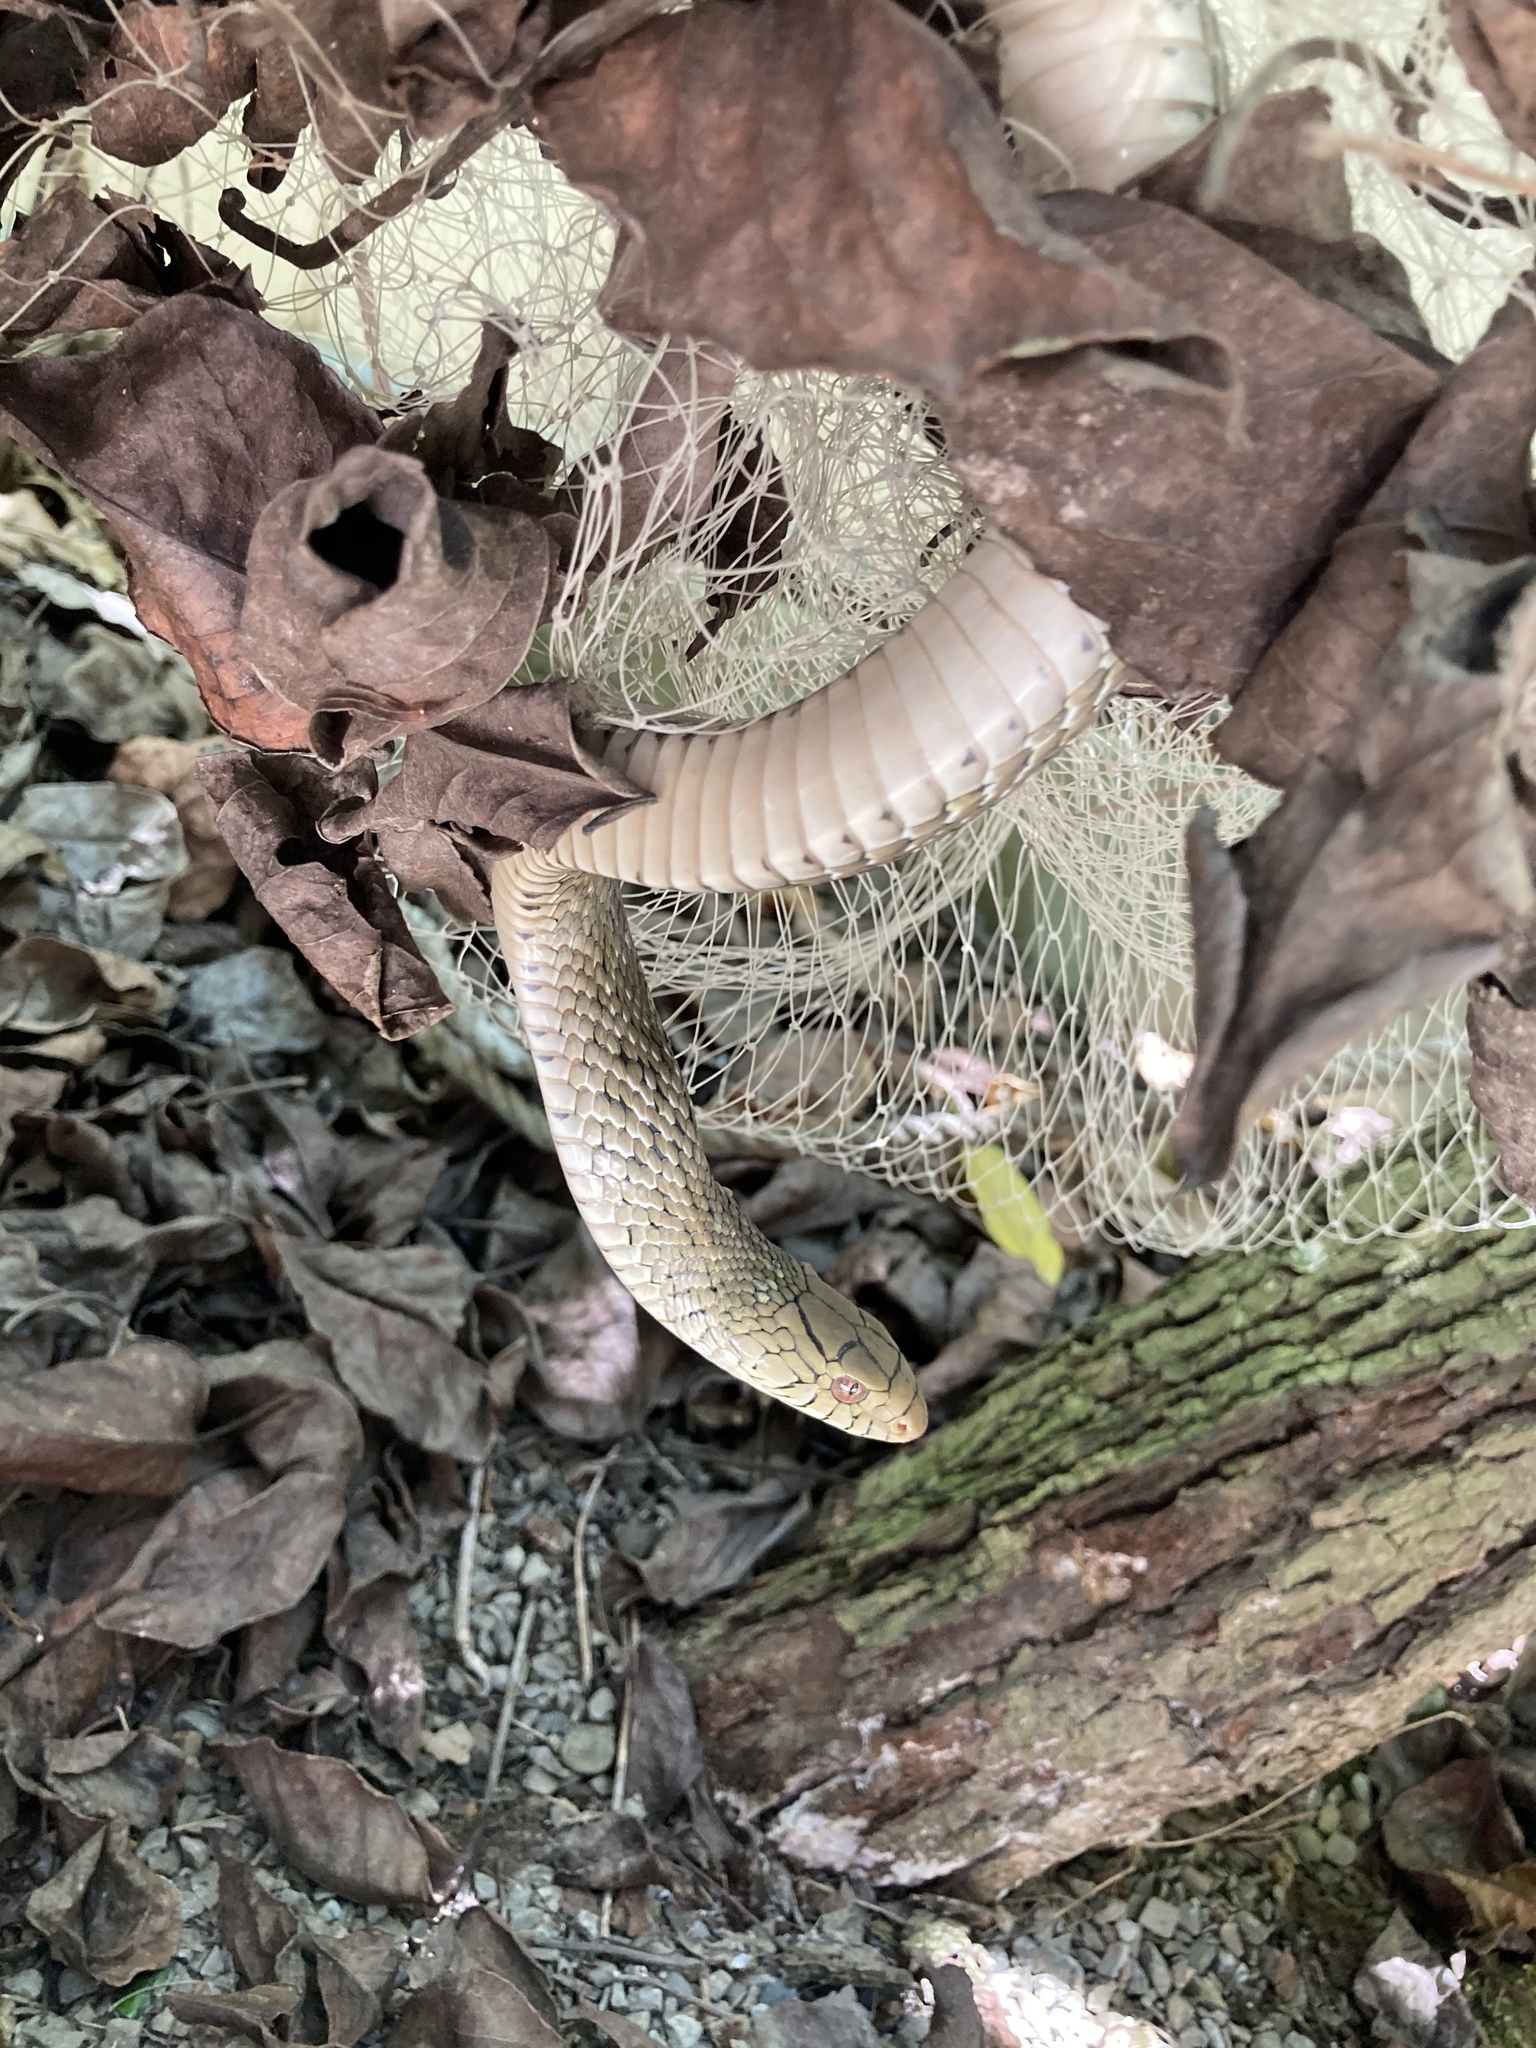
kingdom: Animalia
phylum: Chordata
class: Squamata
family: Colubridae
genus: Elaphe
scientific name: Elaphe carinata
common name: Taiwan stink snake
